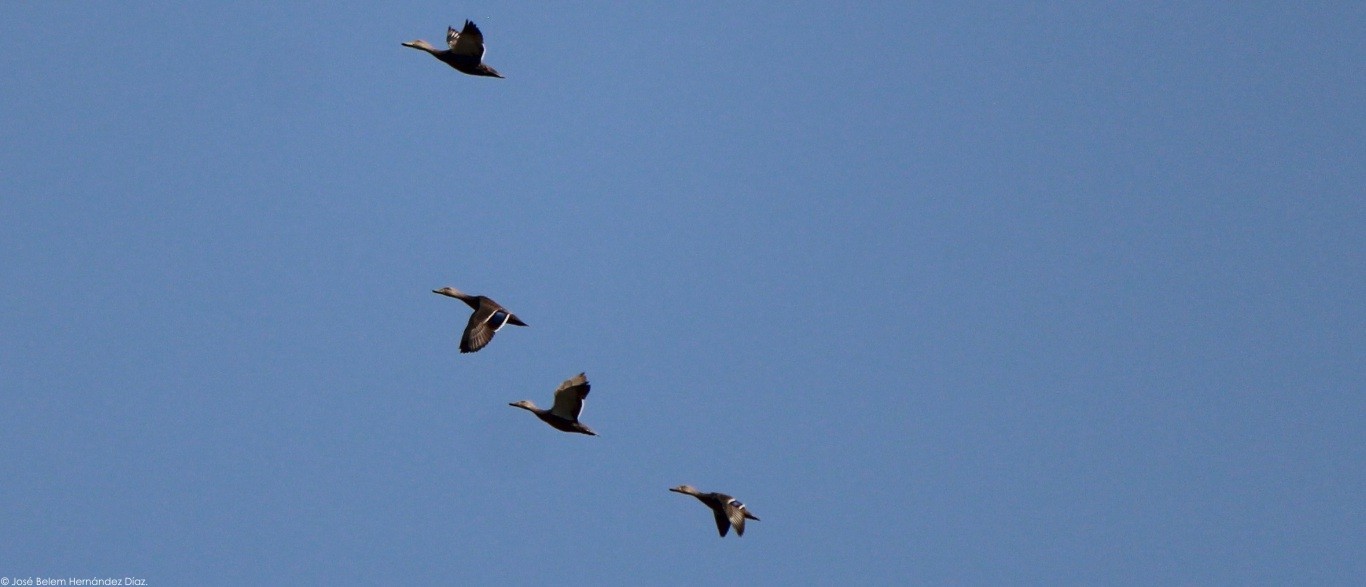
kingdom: Animalia
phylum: Chordata
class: Aves
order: Anseriformes
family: Anatidae
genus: Anas
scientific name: Anas diazi
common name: Mexican duck
